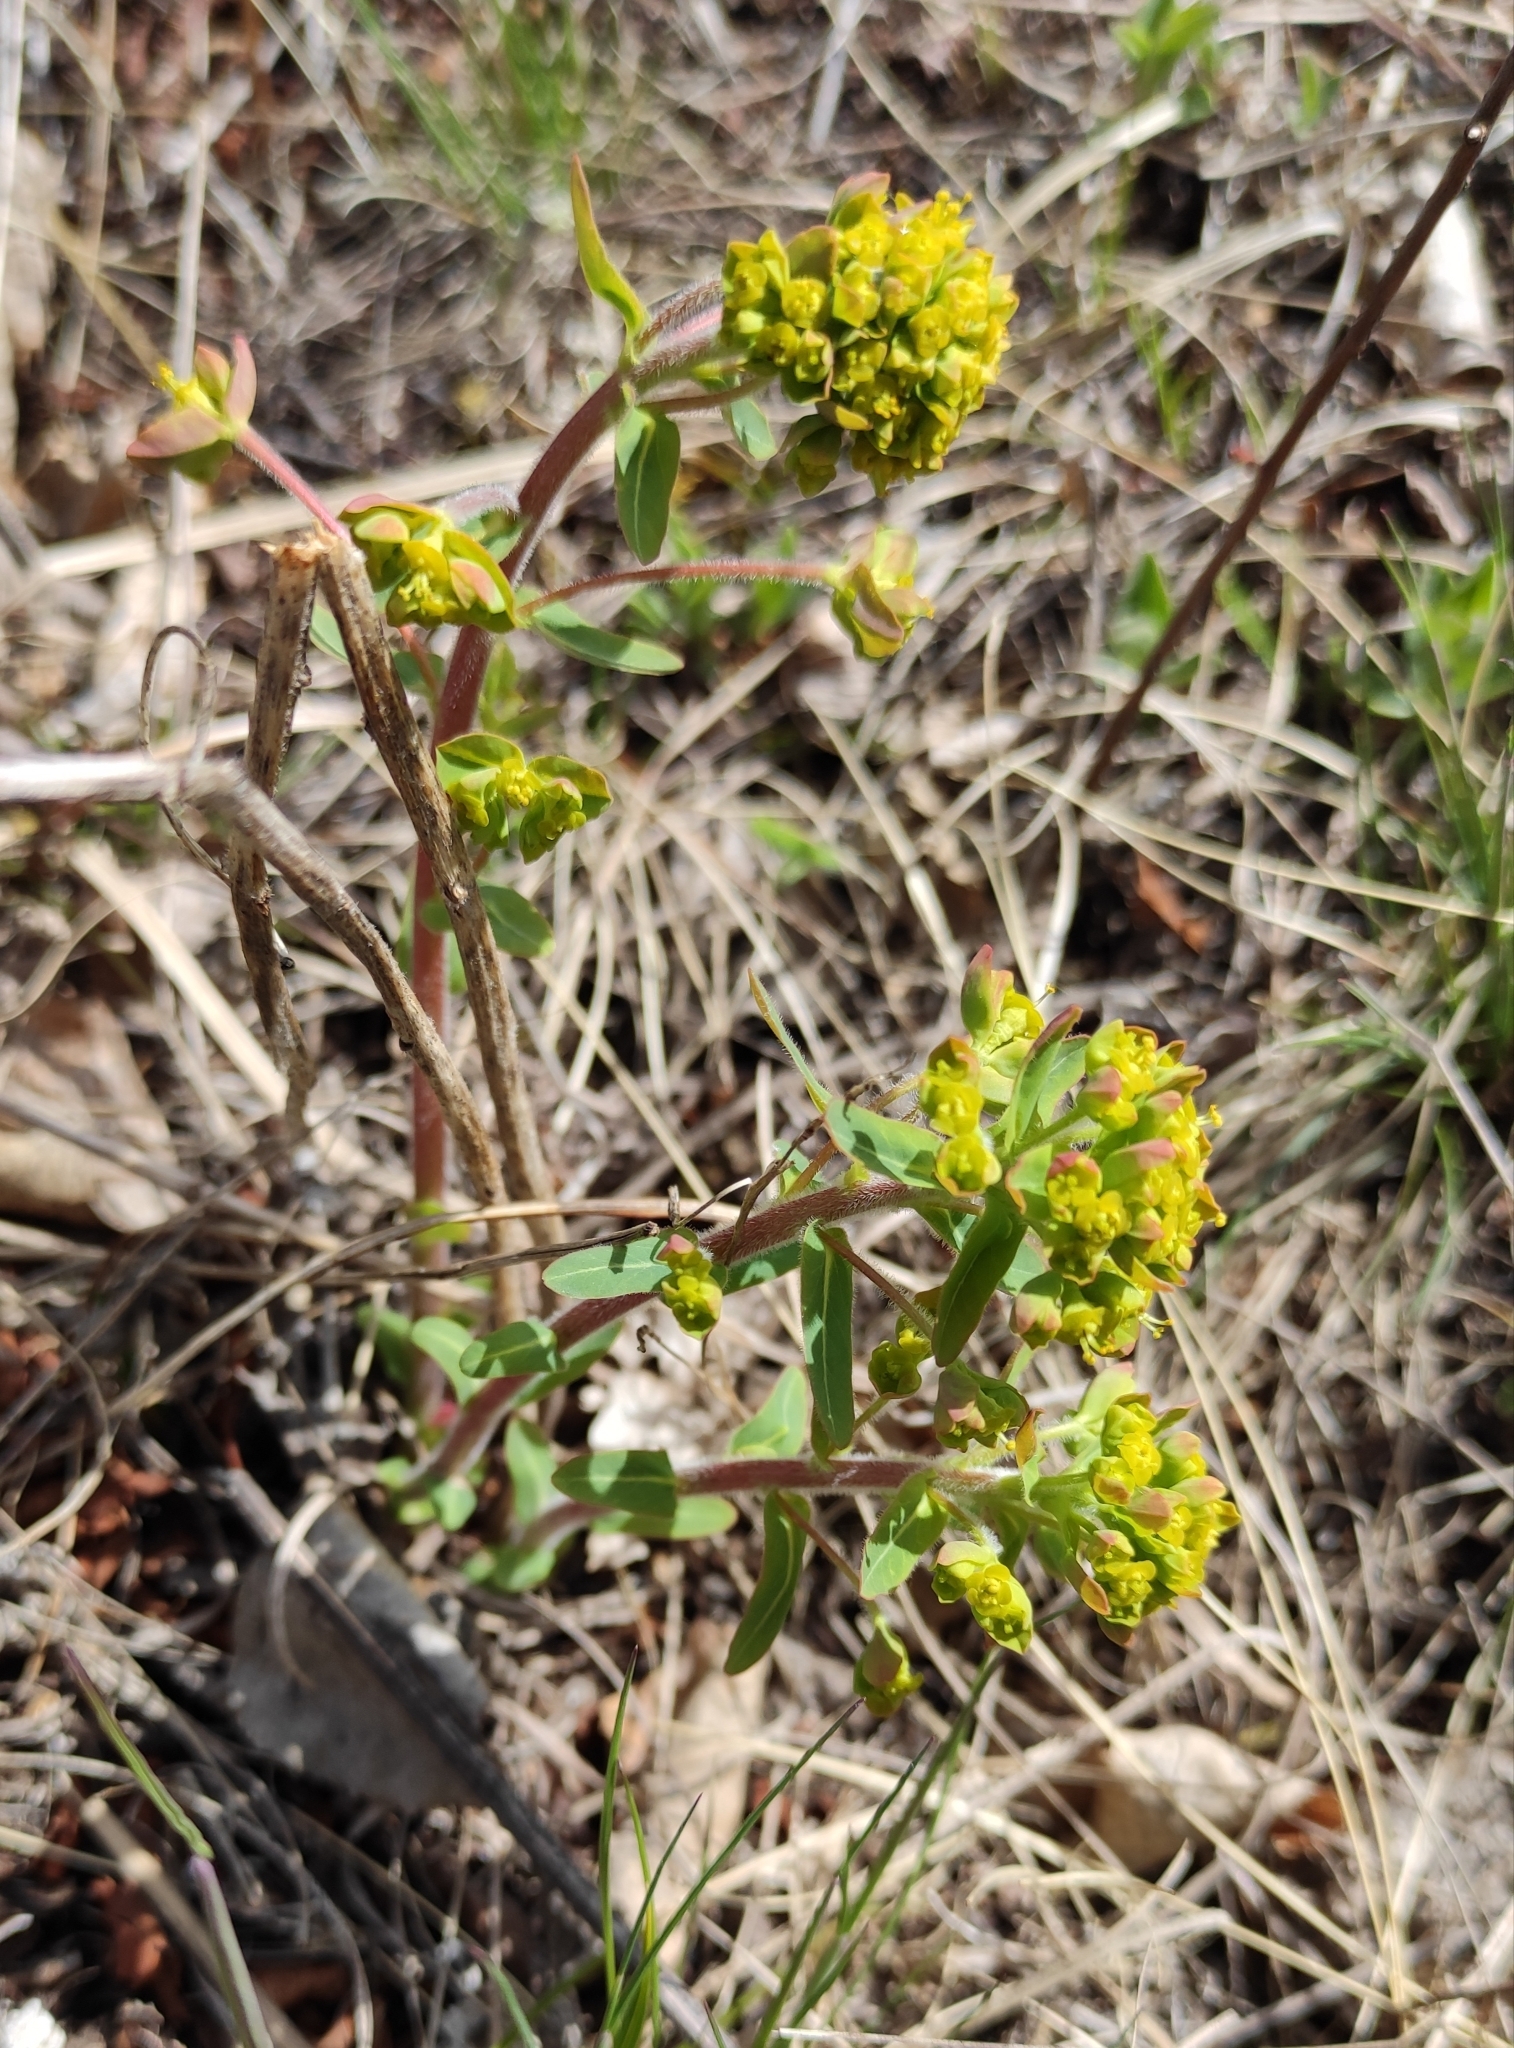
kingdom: Plantae
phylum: Tracheophyta
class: Magnoliopsida
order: Malpighiales
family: Euphorbiaceae
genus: Euphorbia
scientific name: Euphorbia jenisseiensis
